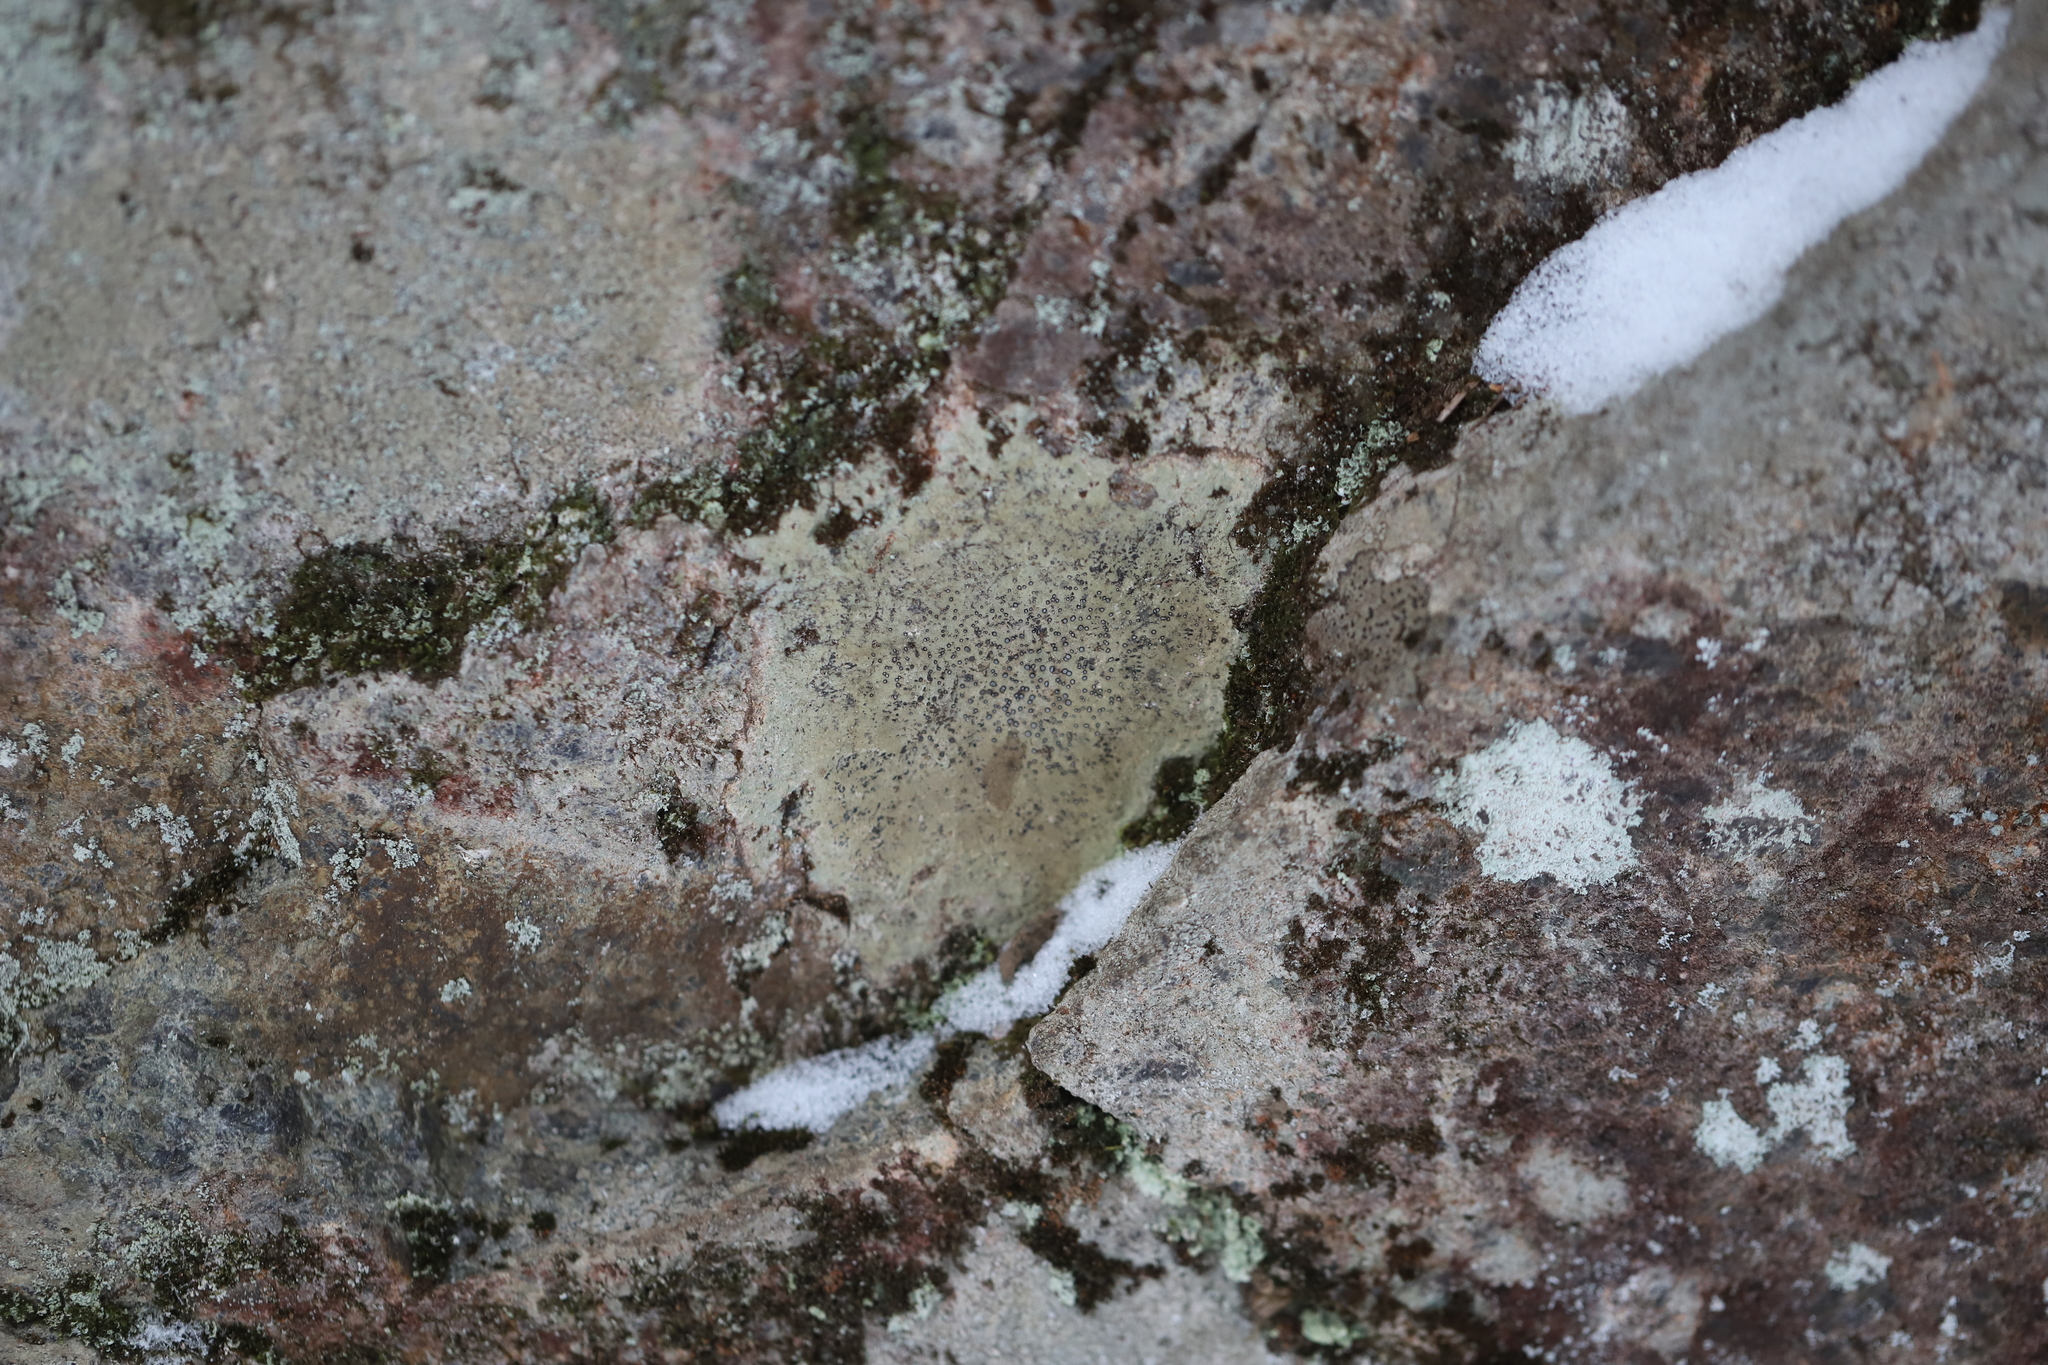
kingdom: Fungi
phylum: Ascomycota
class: Lecanoromycetes
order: Lecideales
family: Lecideaceae
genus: Porpidia
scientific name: Porpidia albocaerulescens
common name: Smokey-eyed boulder lichen
